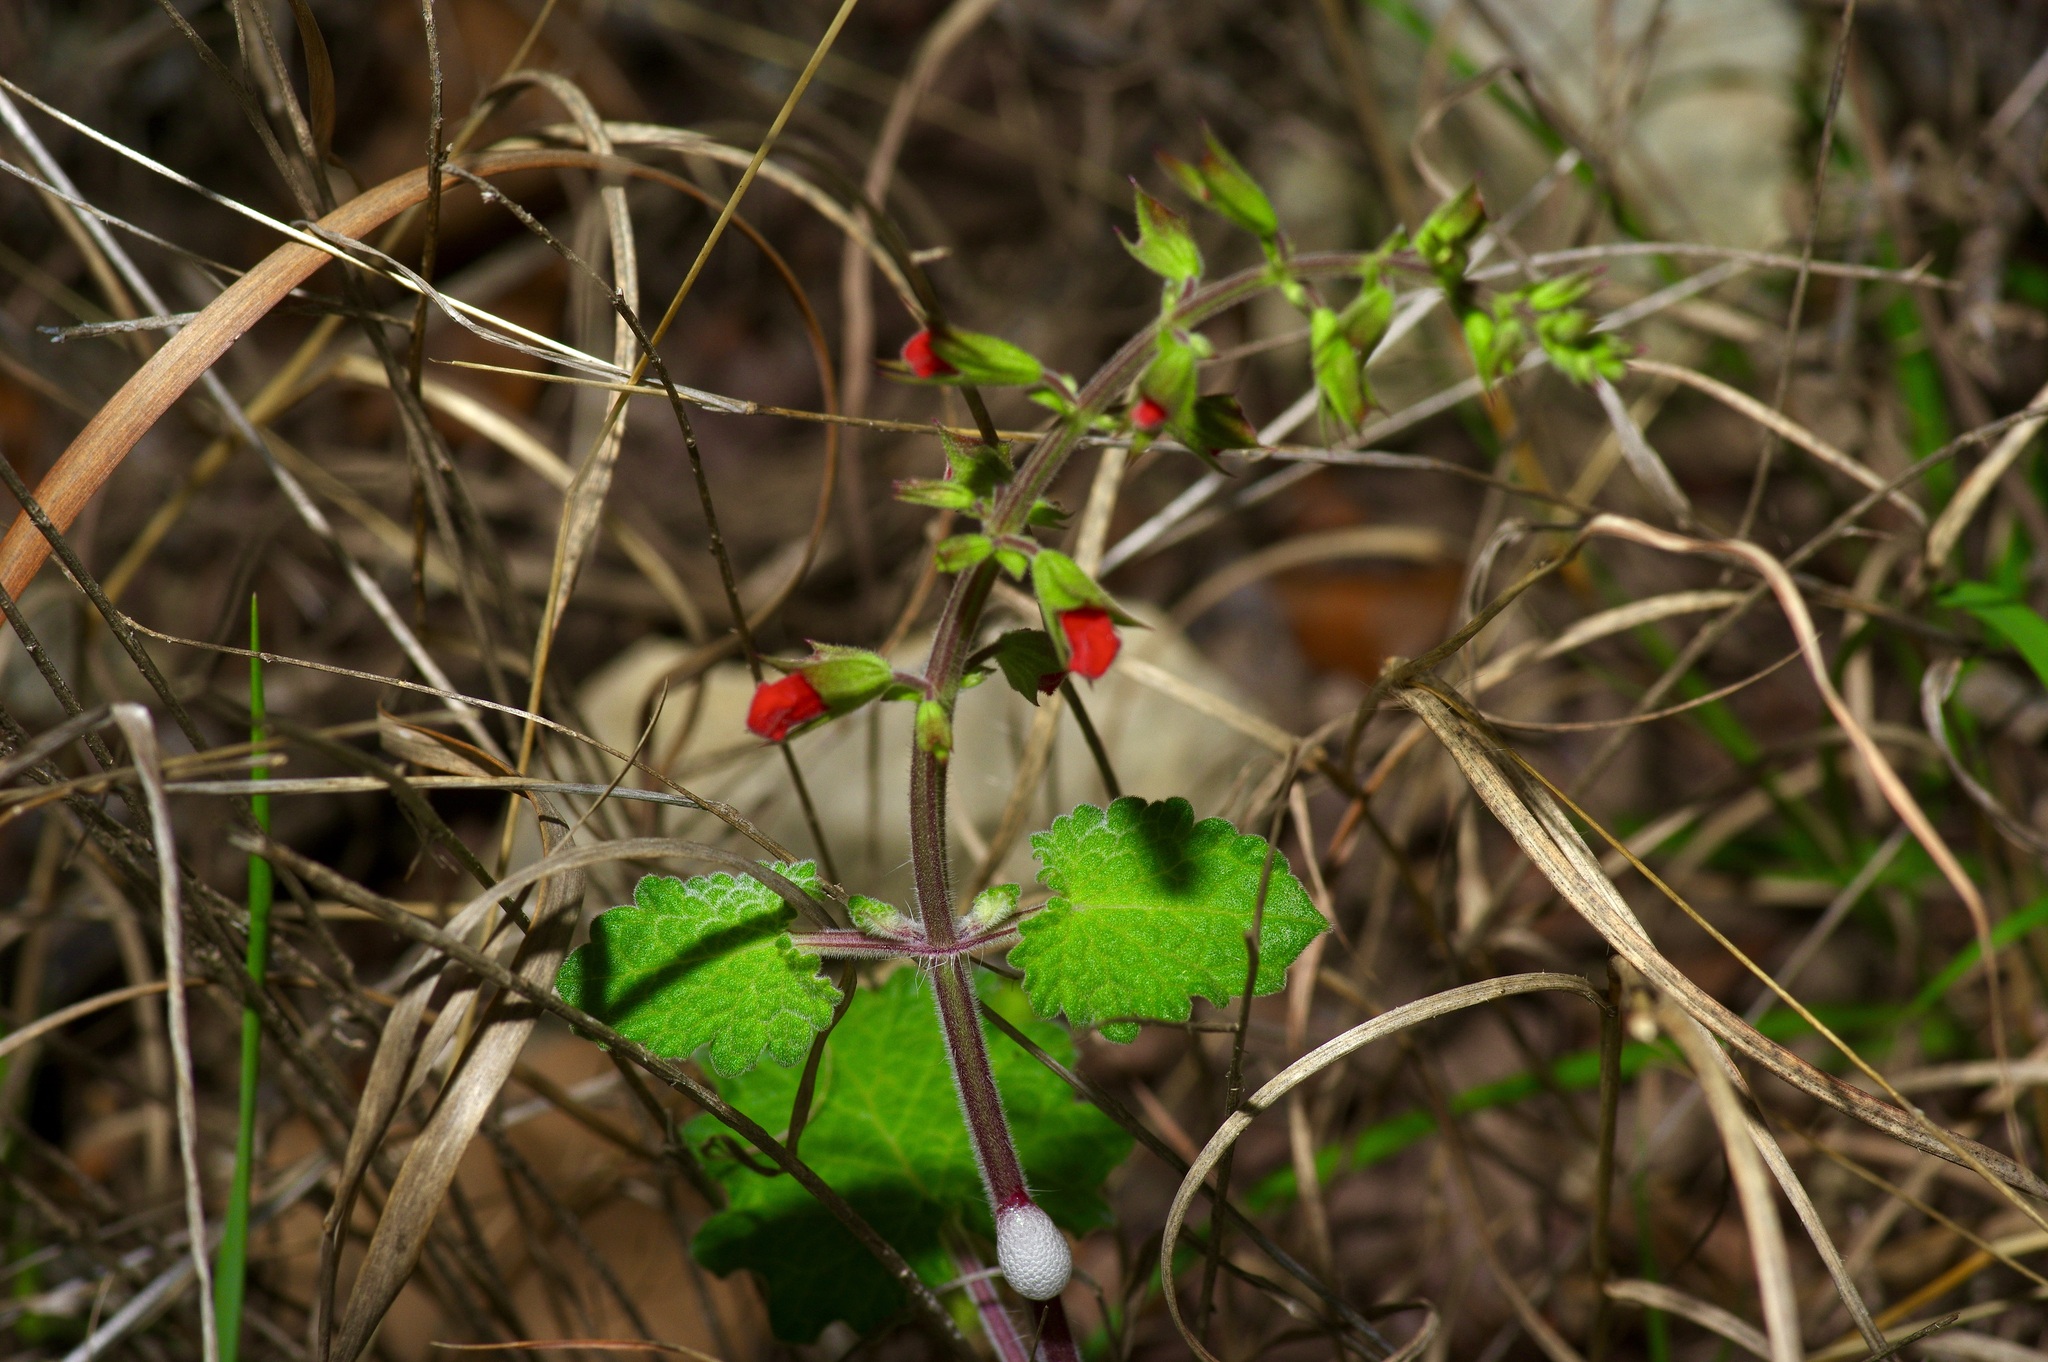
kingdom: Plantae
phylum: Tracheophyta
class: Magnoliopsida
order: Lamiales
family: Lamiaceae
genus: Salvia
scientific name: Salvia roemeriana
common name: Cedar sage
